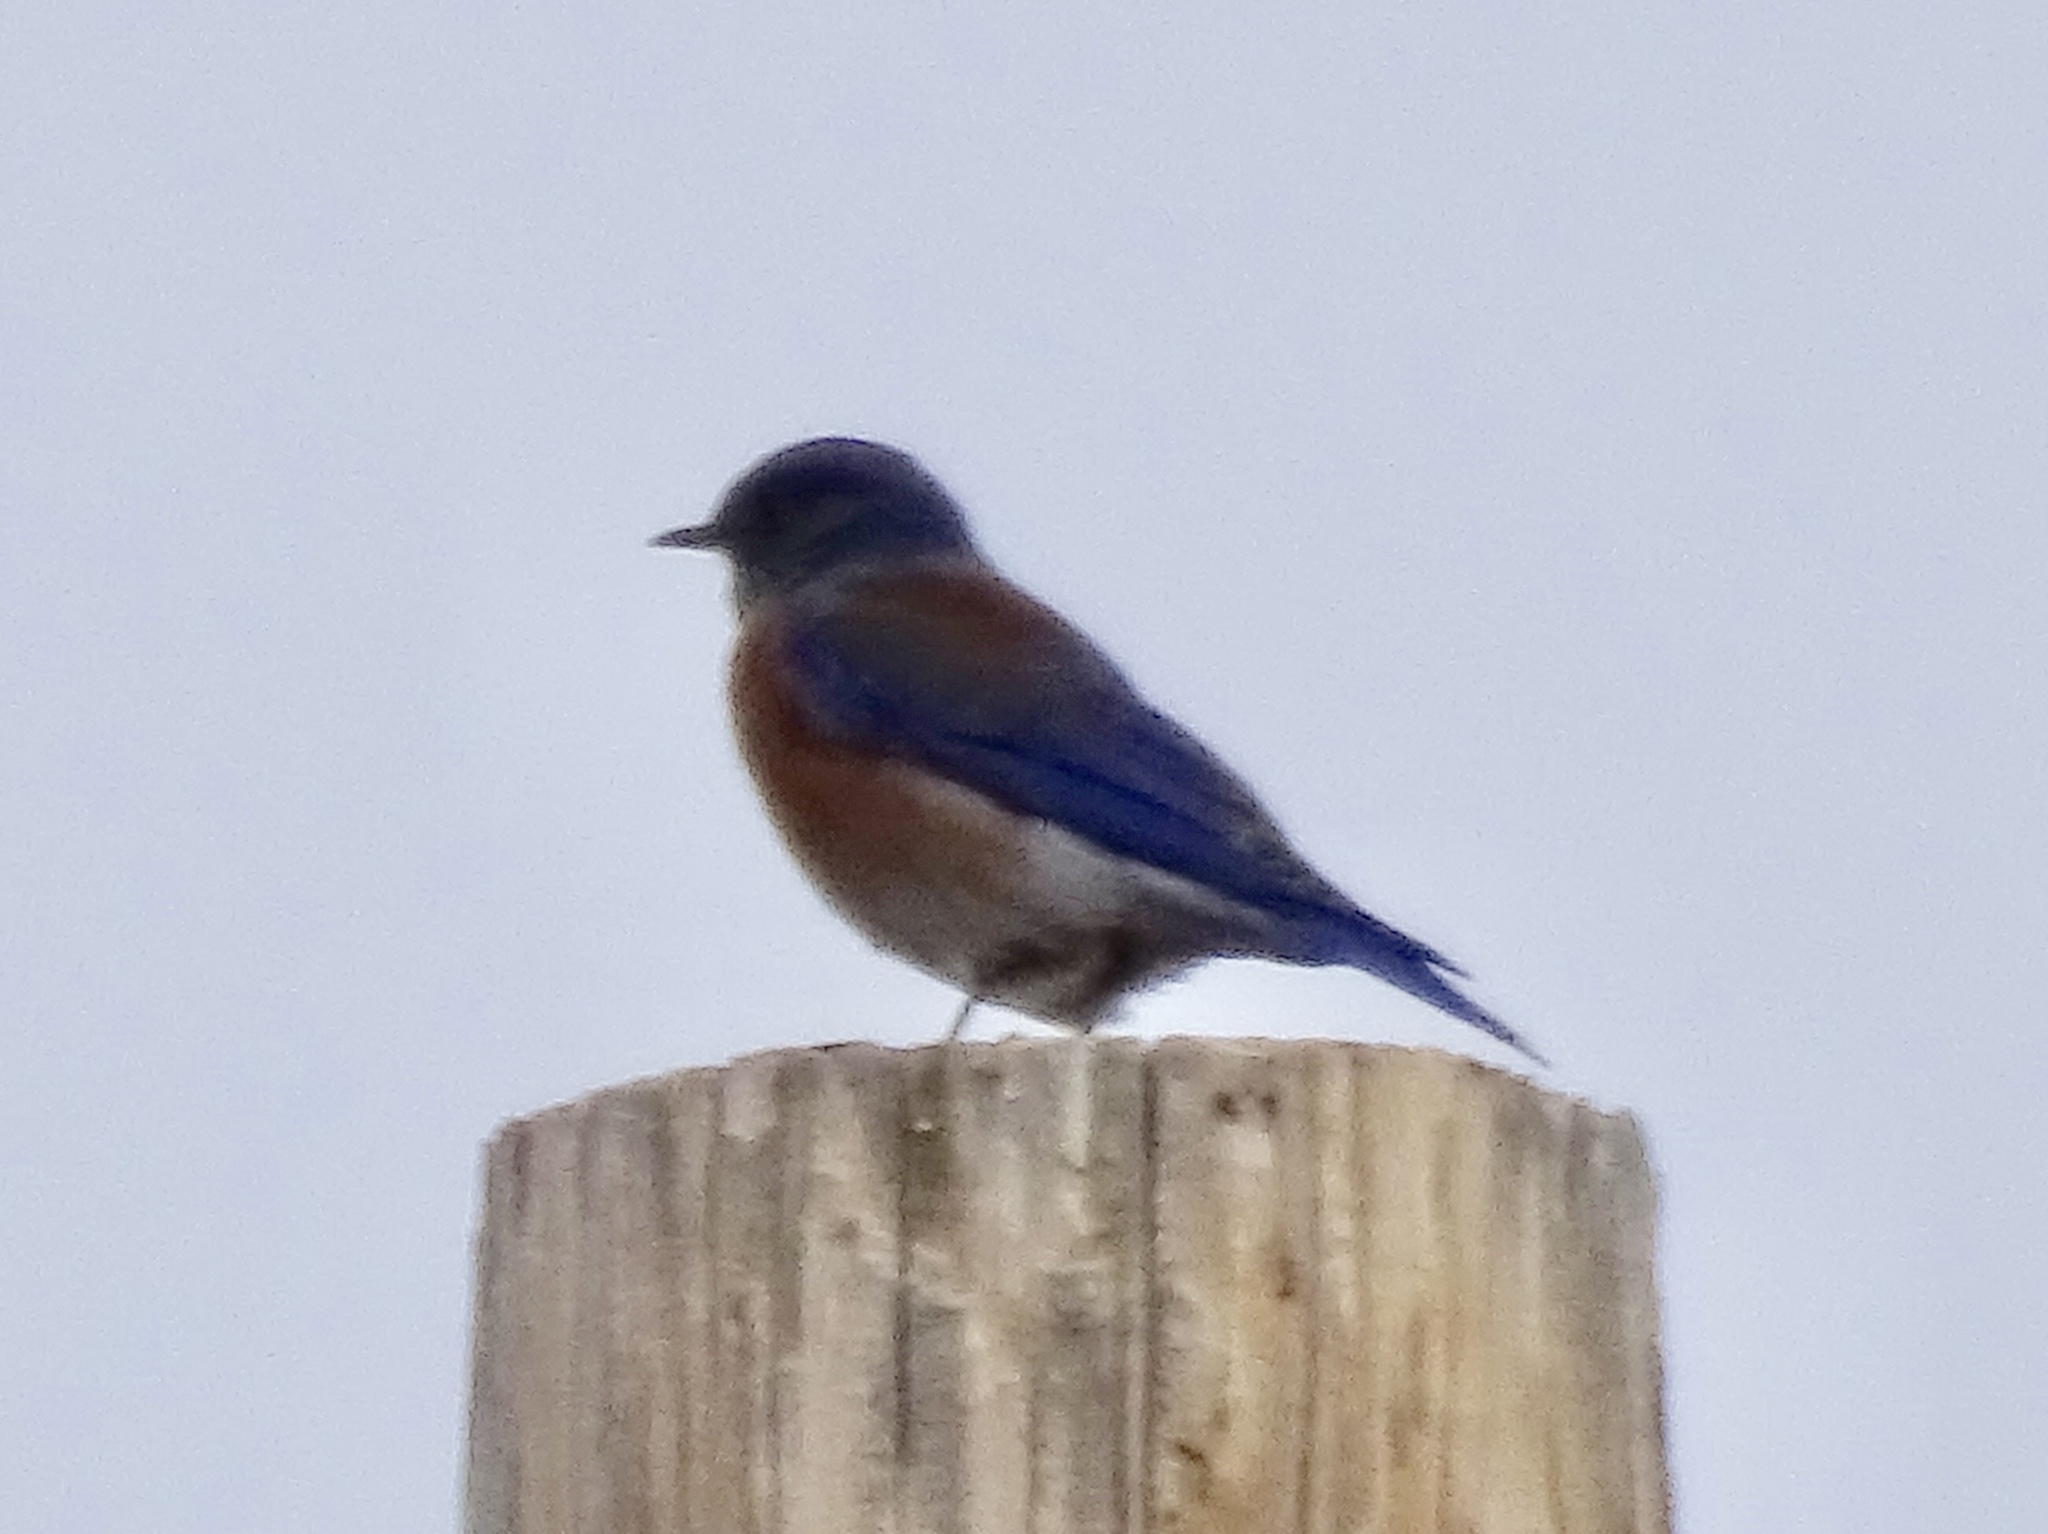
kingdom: Animalia
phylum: Chordata
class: Aves
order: Passeriformes
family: Turdidae
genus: Sialia
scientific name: Sialia mexicana
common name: Western bluebird
